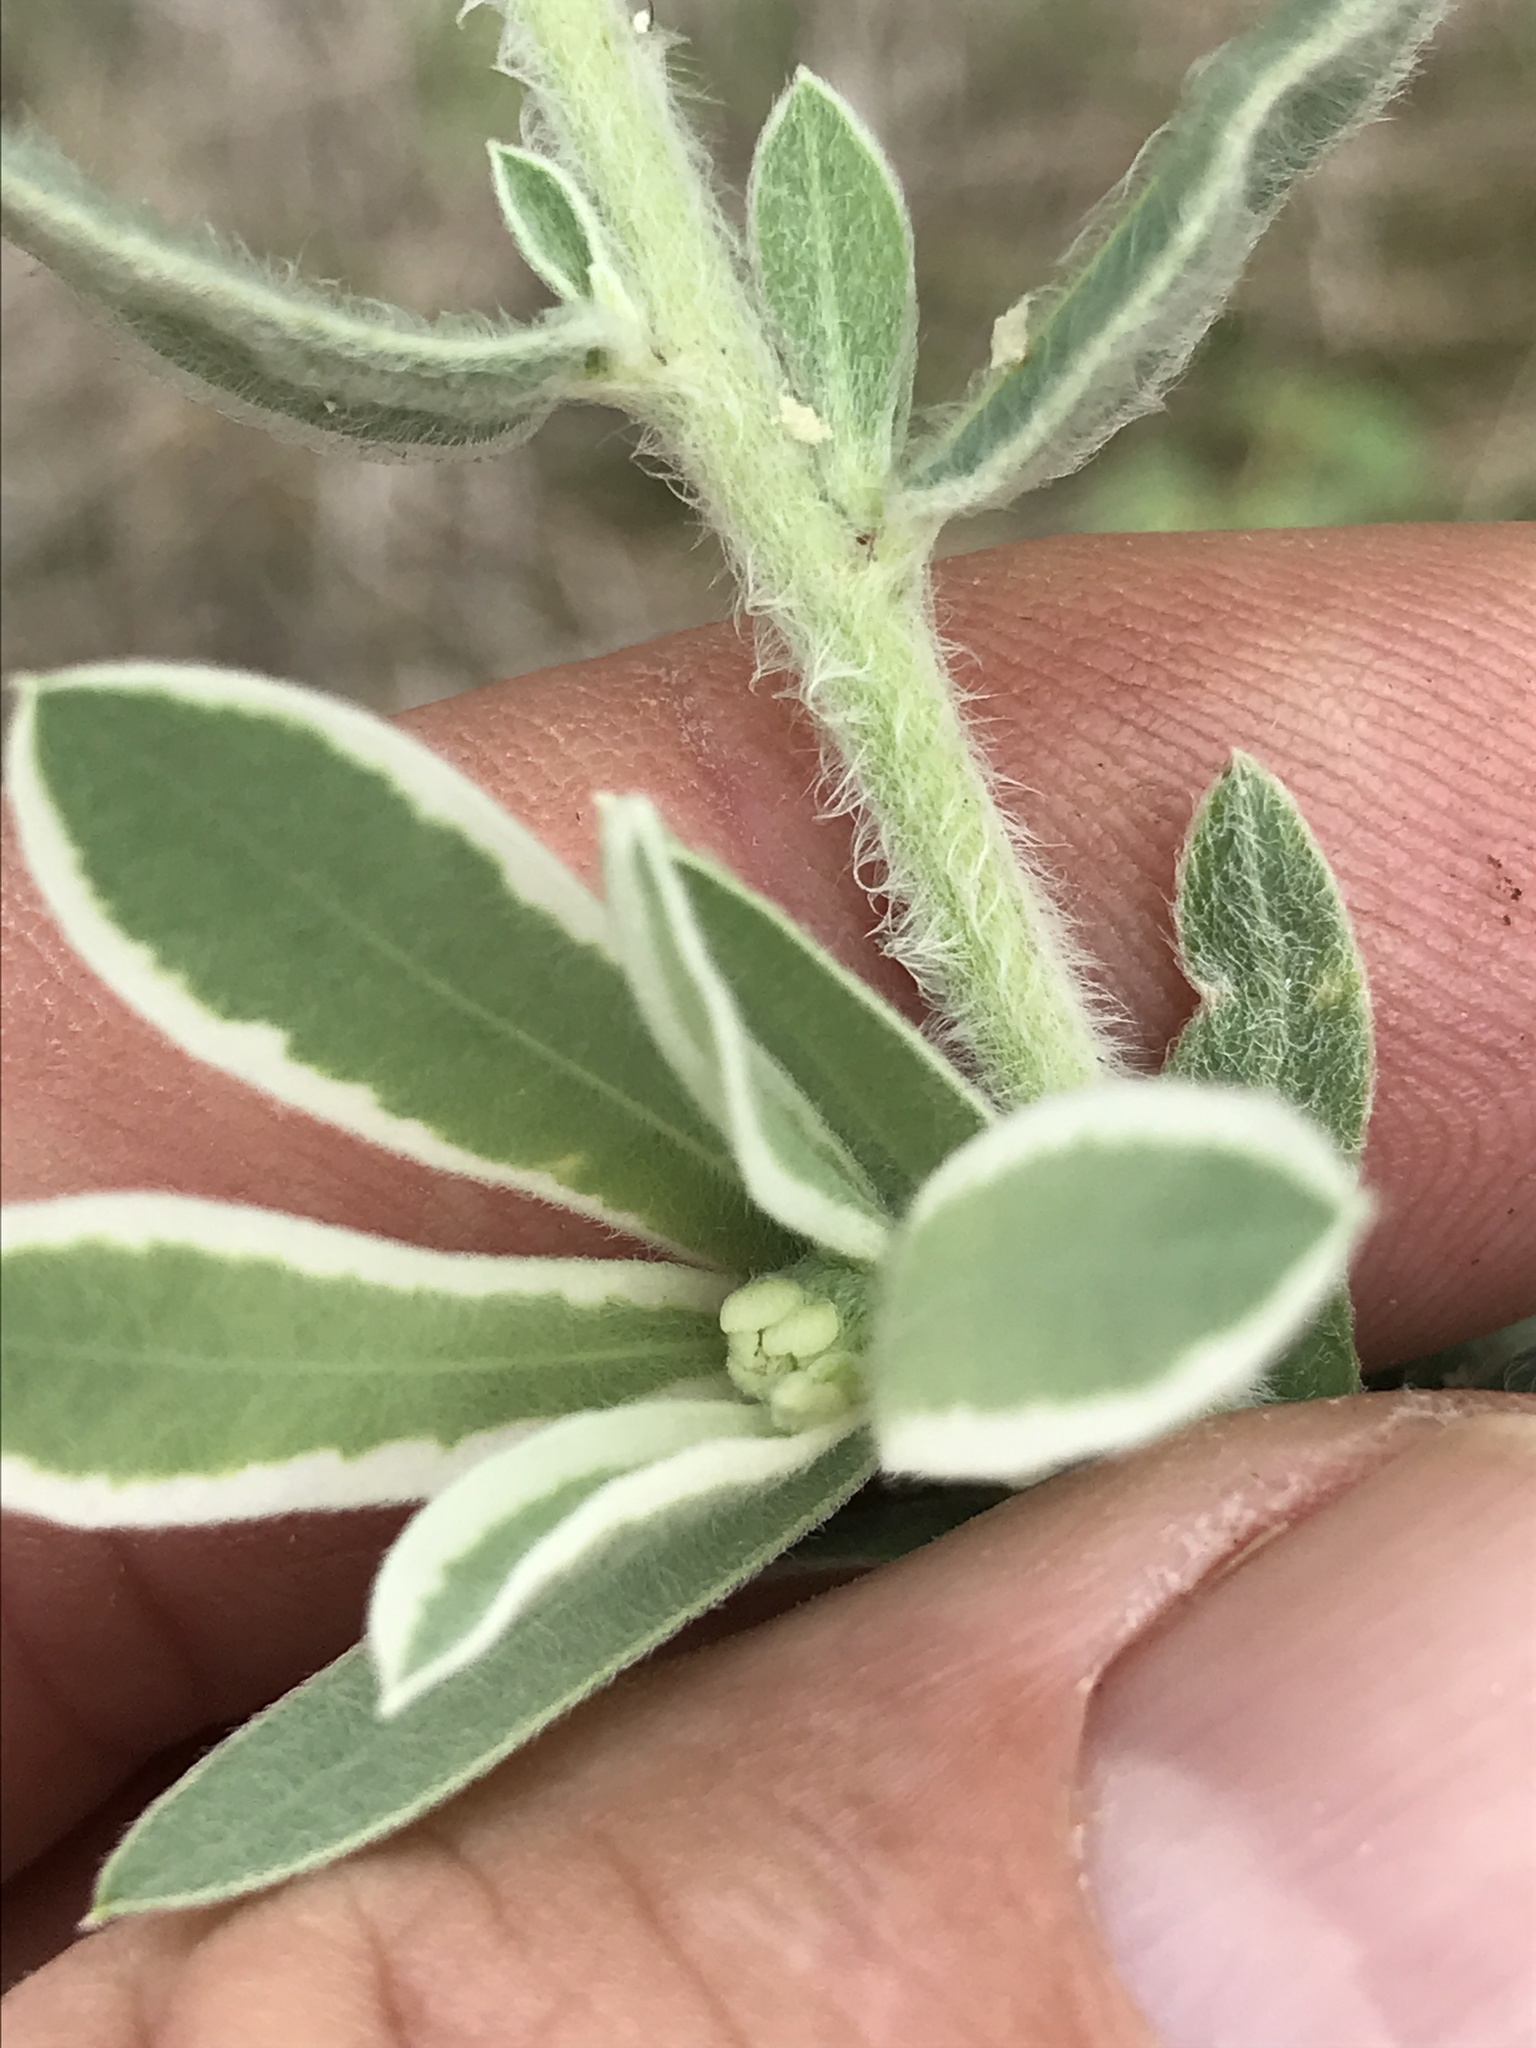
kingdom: Plantae
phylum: Tracheophyta
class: Magnoliopsida
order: Malpighiales
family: Euphorbiaceae
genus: Euphorbia
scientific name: Euphorbia bicolor
